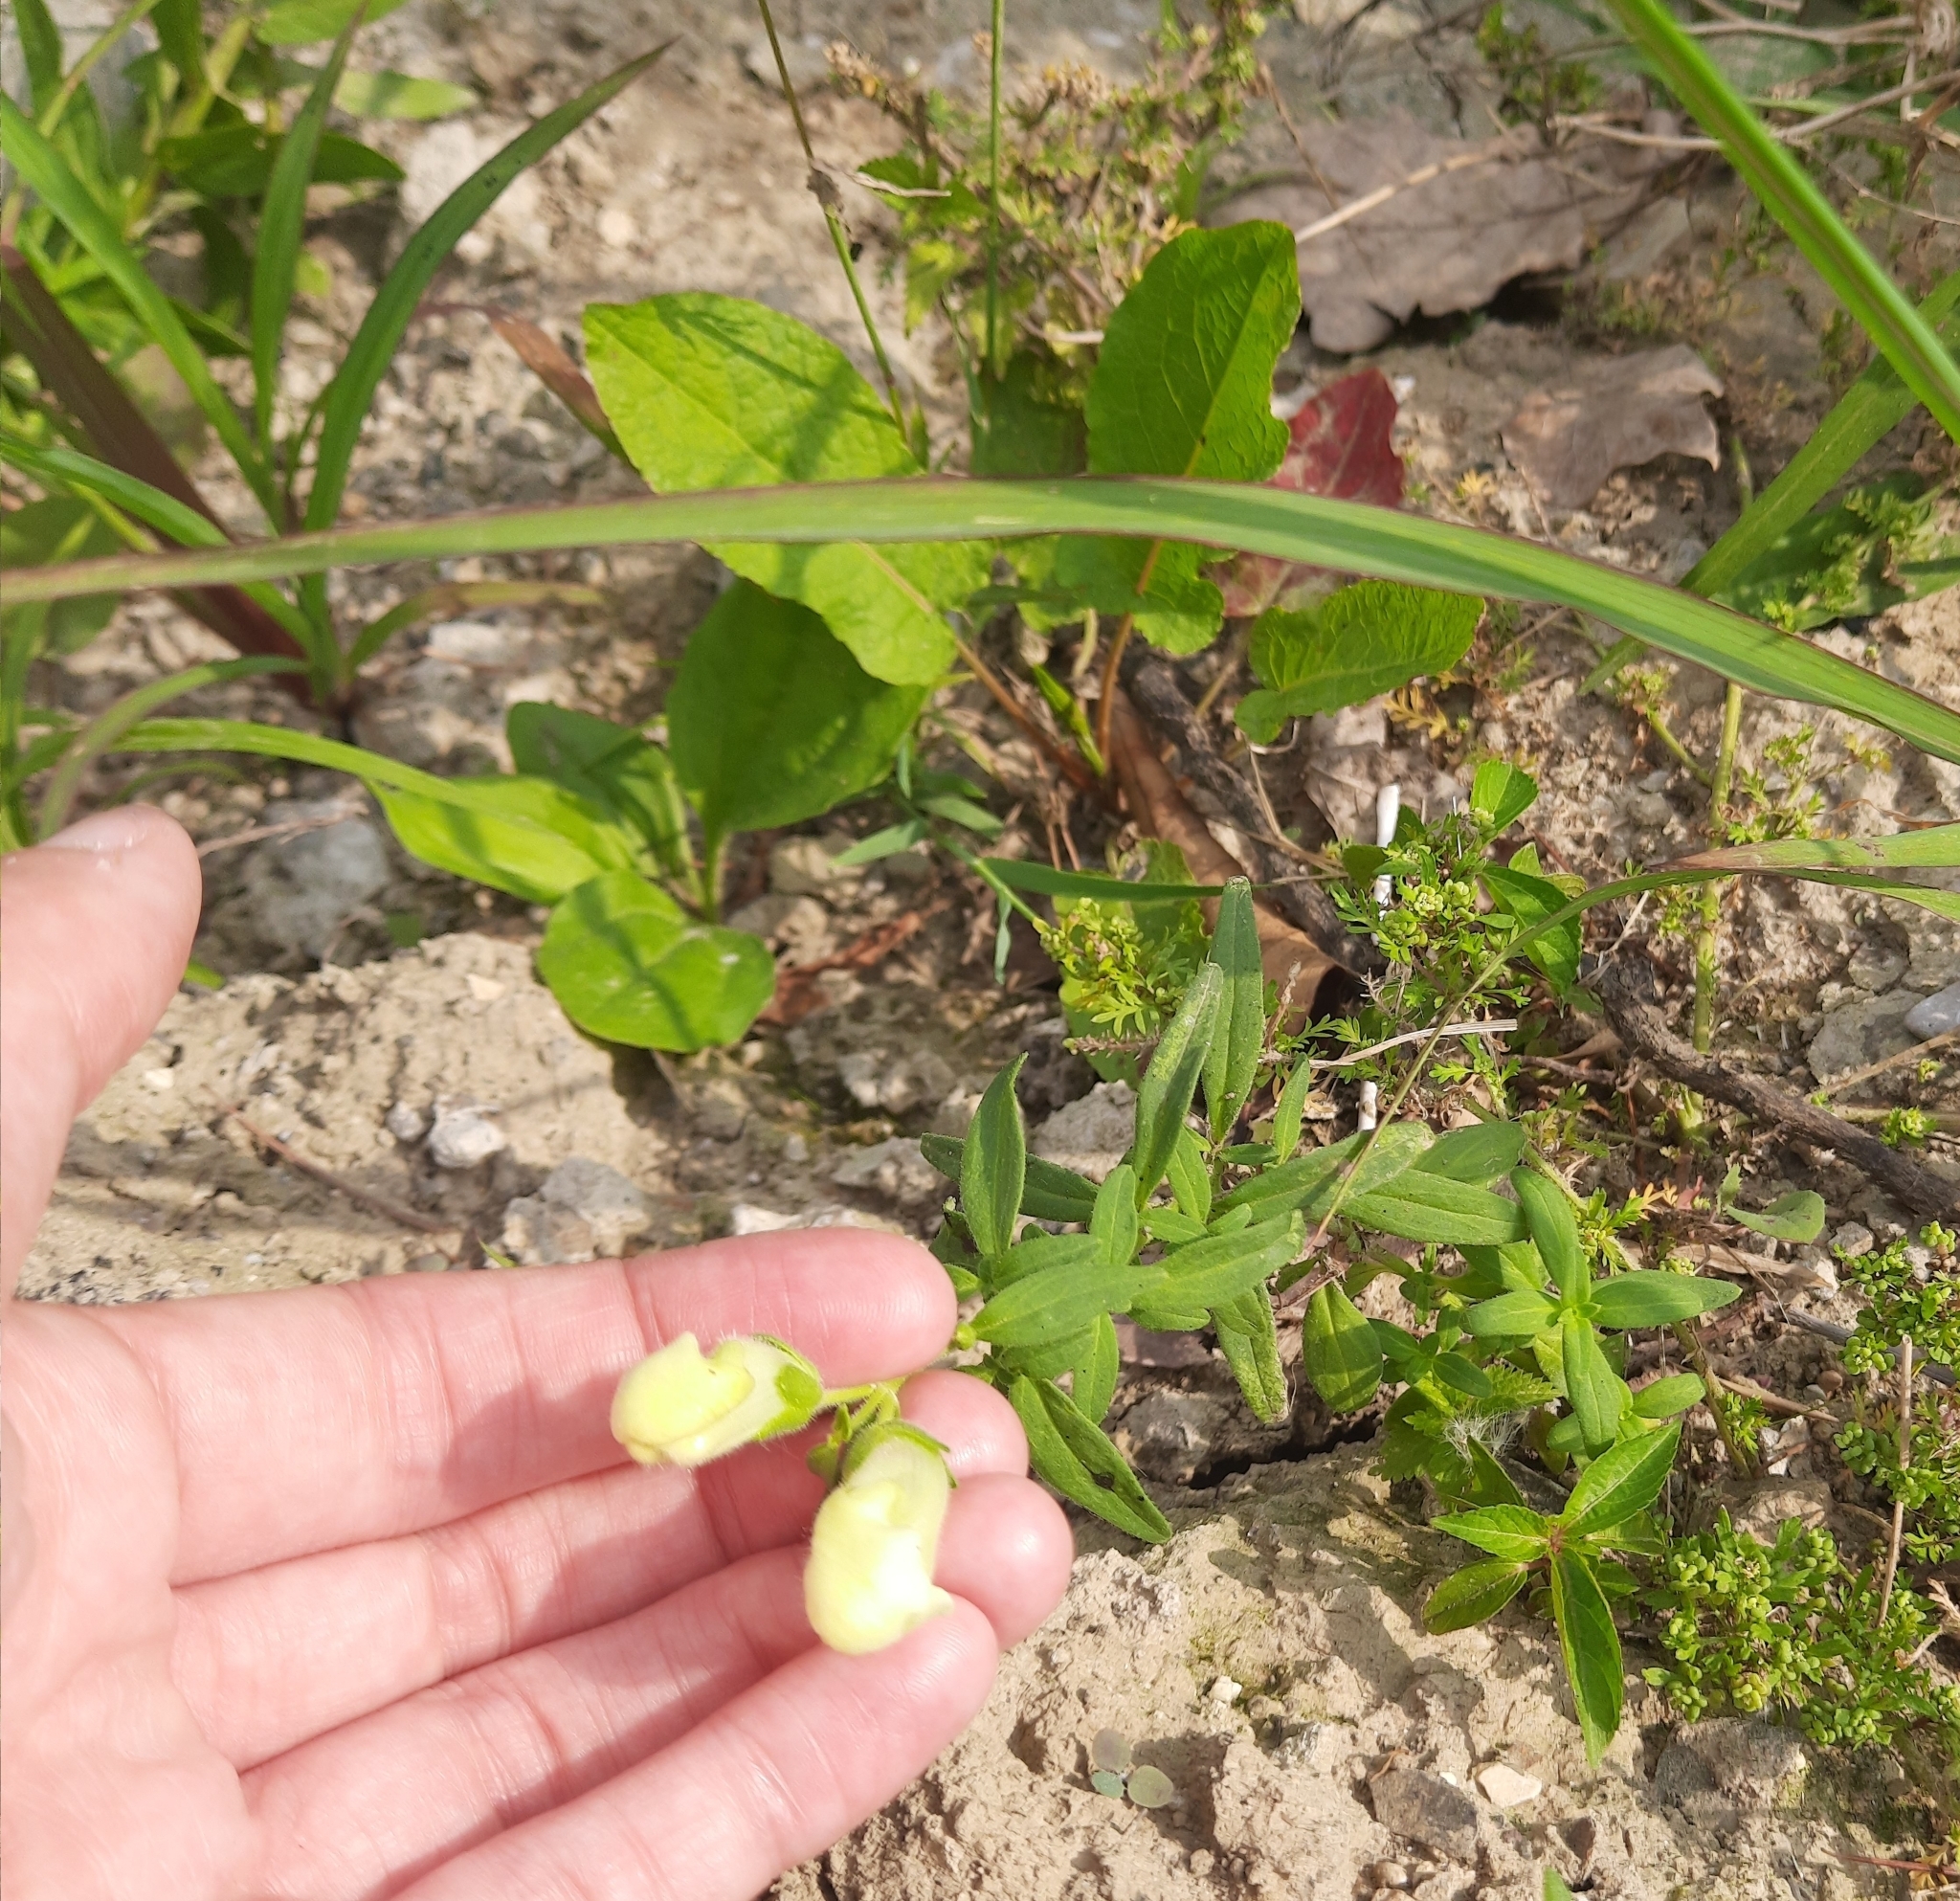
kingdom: Plantae
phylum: Tracheophyta
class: Magnoliopsida
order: Lamiales
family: Plantaginaceae
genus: Antirrhinum
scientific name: Antirrhinum majus
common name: Snapdragon
